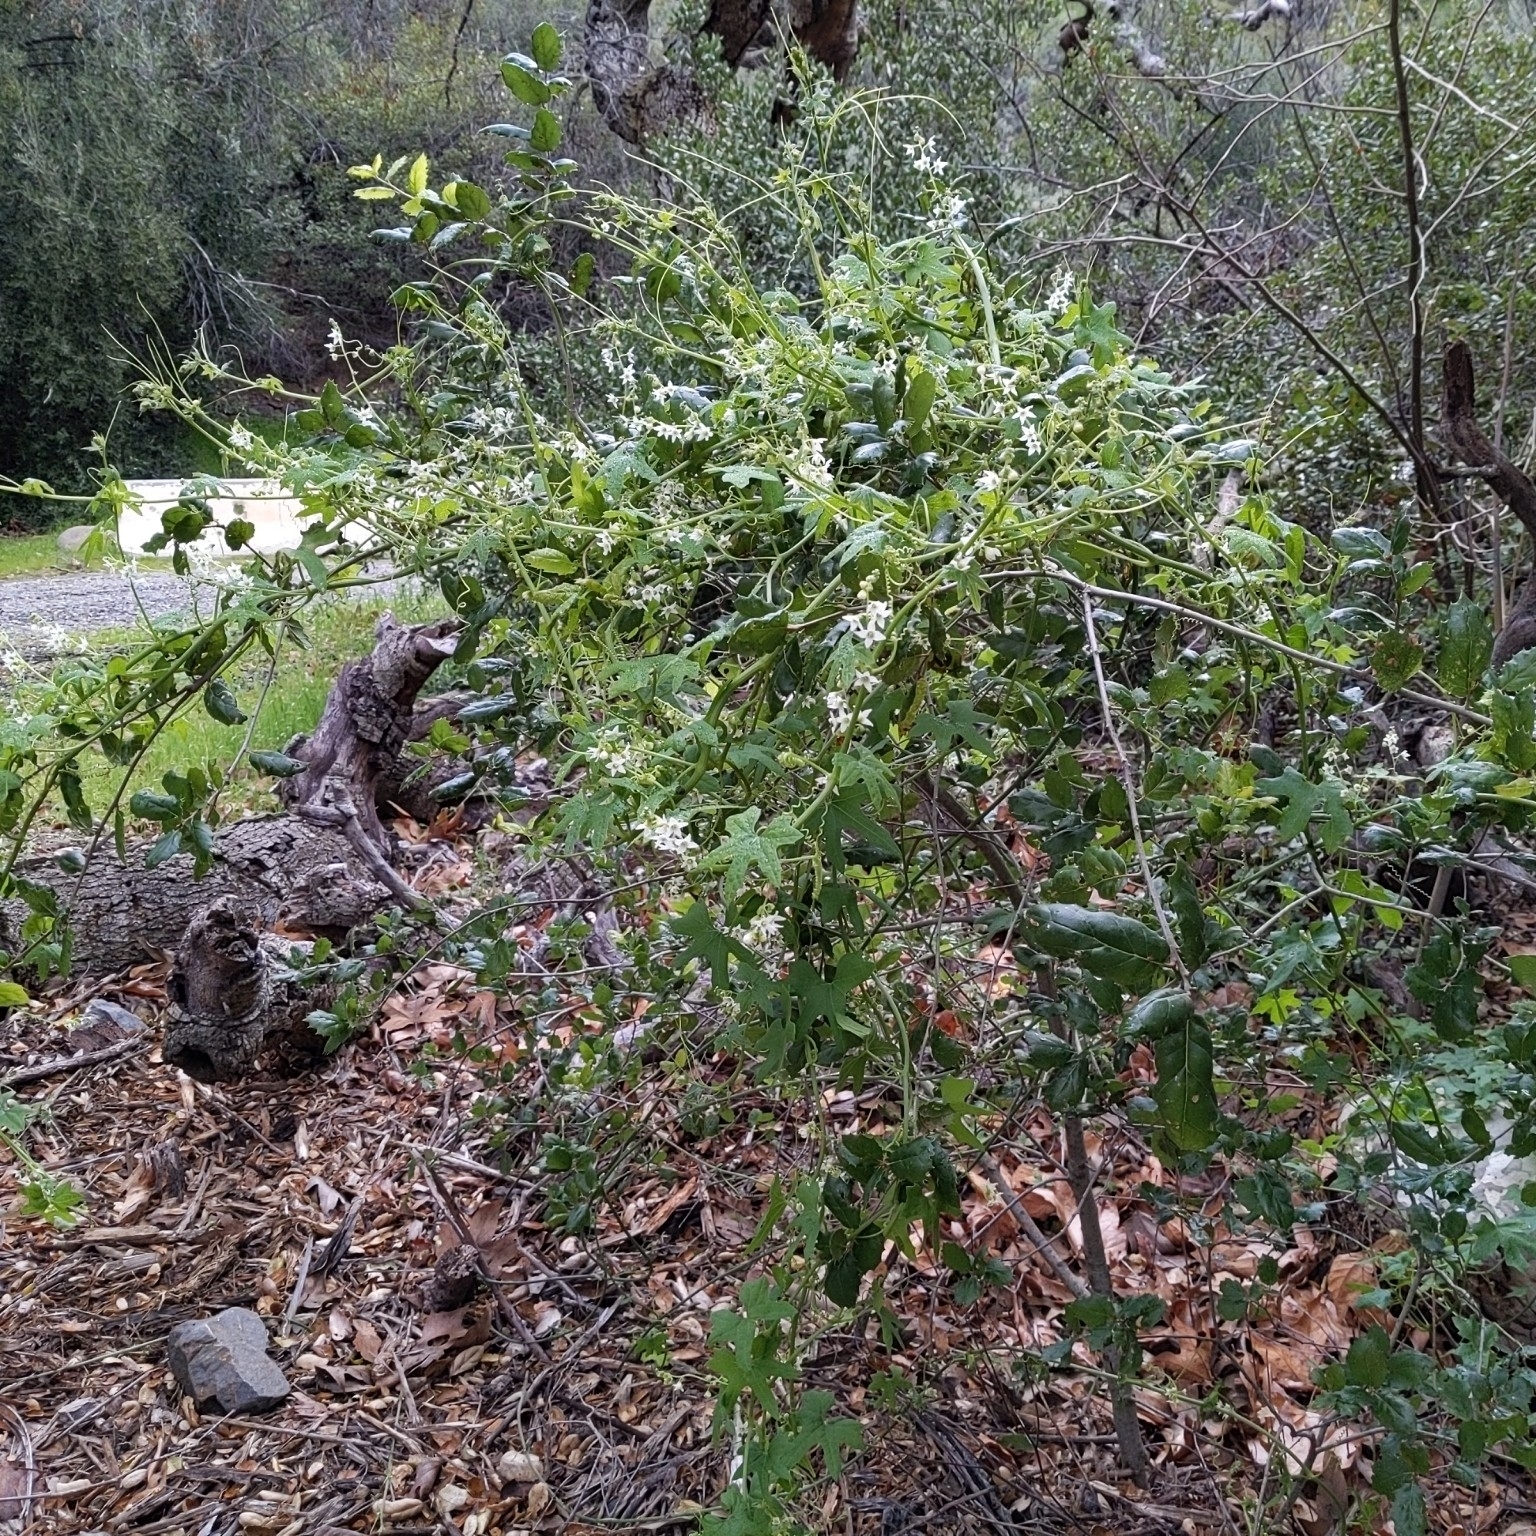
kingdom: Plantae
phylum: Tracheophyta
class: Magnoliopsida
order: Cucurbitales
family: Cucurbitaceae
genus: Marah
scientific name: Marah macrocarpa
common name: Cucamonga manroot
